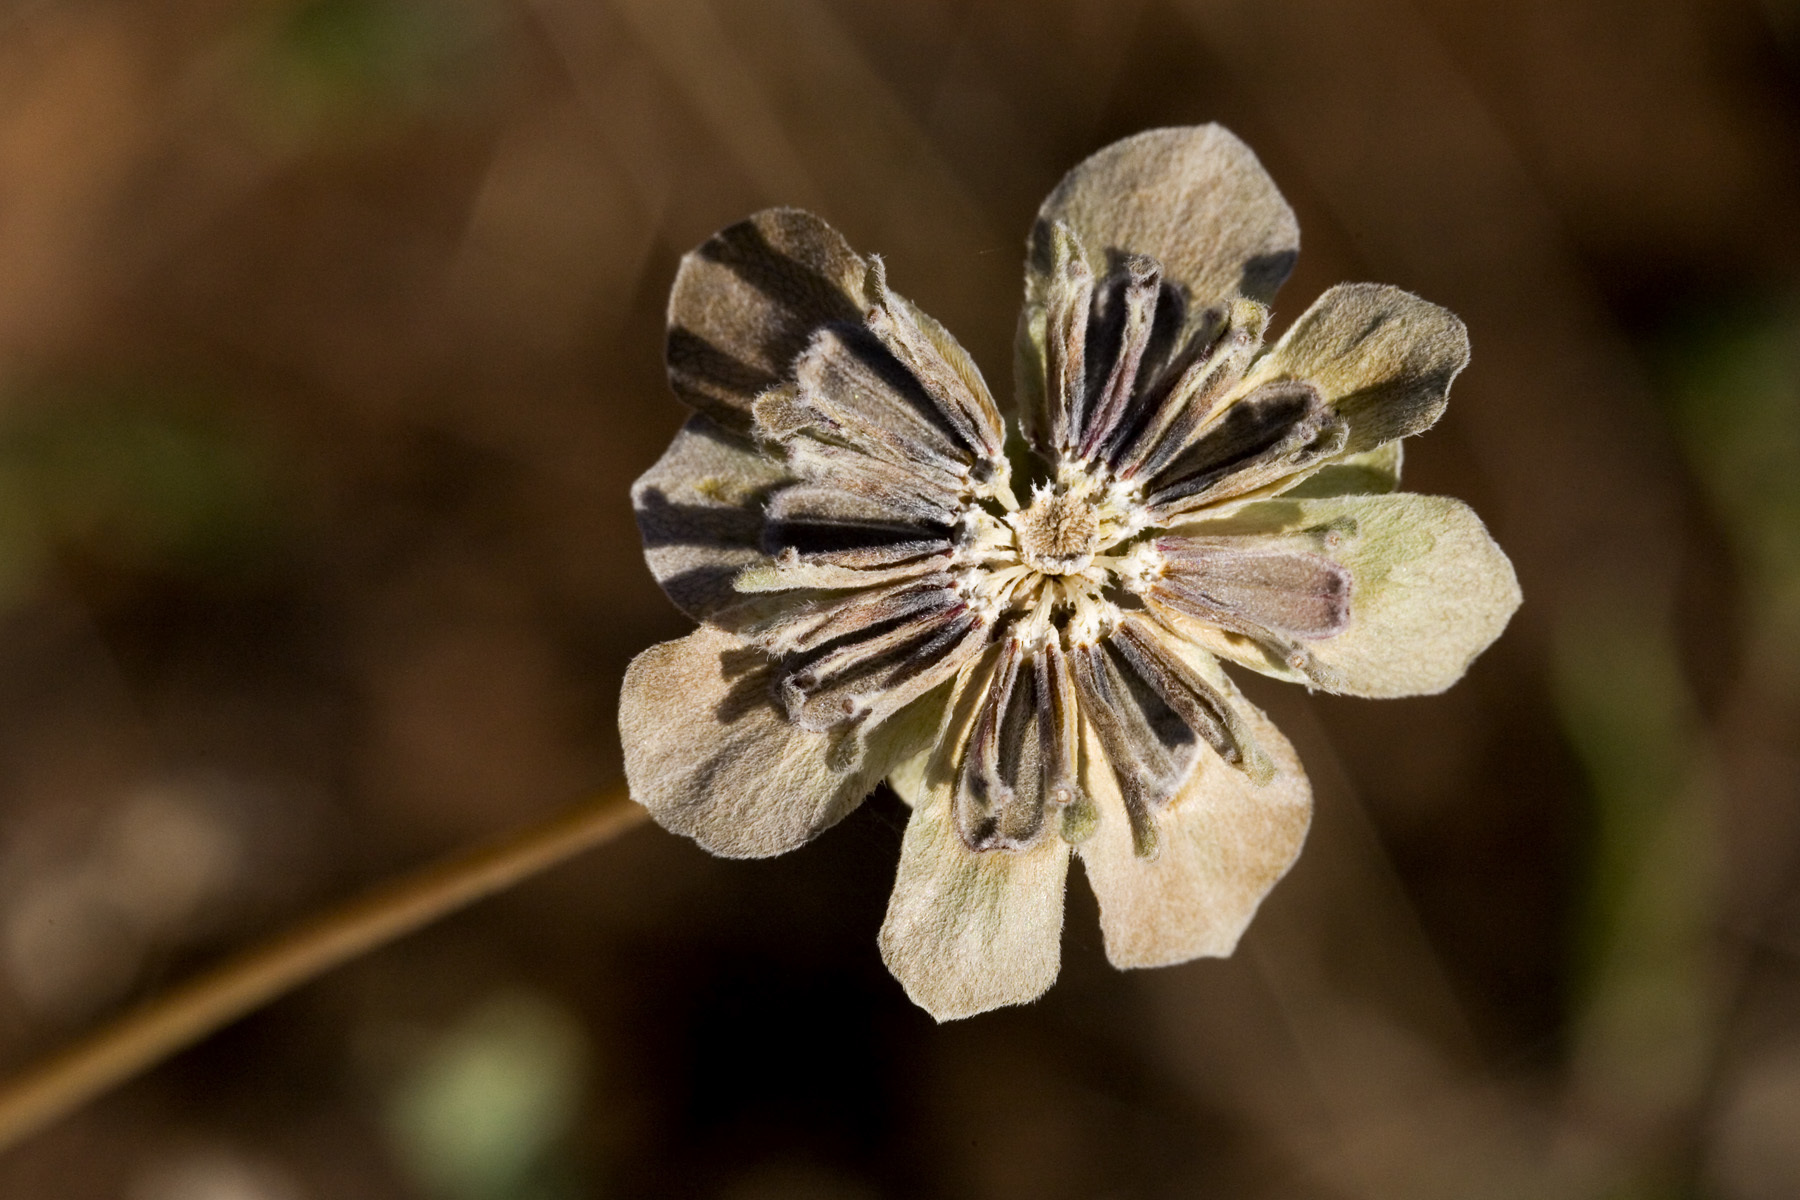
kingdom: Plantae
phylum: Tracheophyta
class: Magnoliopsida
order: Asterales
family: Asteraceae
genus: Berlandiera
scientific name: Berlandiera lyrata
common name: Chocolate-flower
